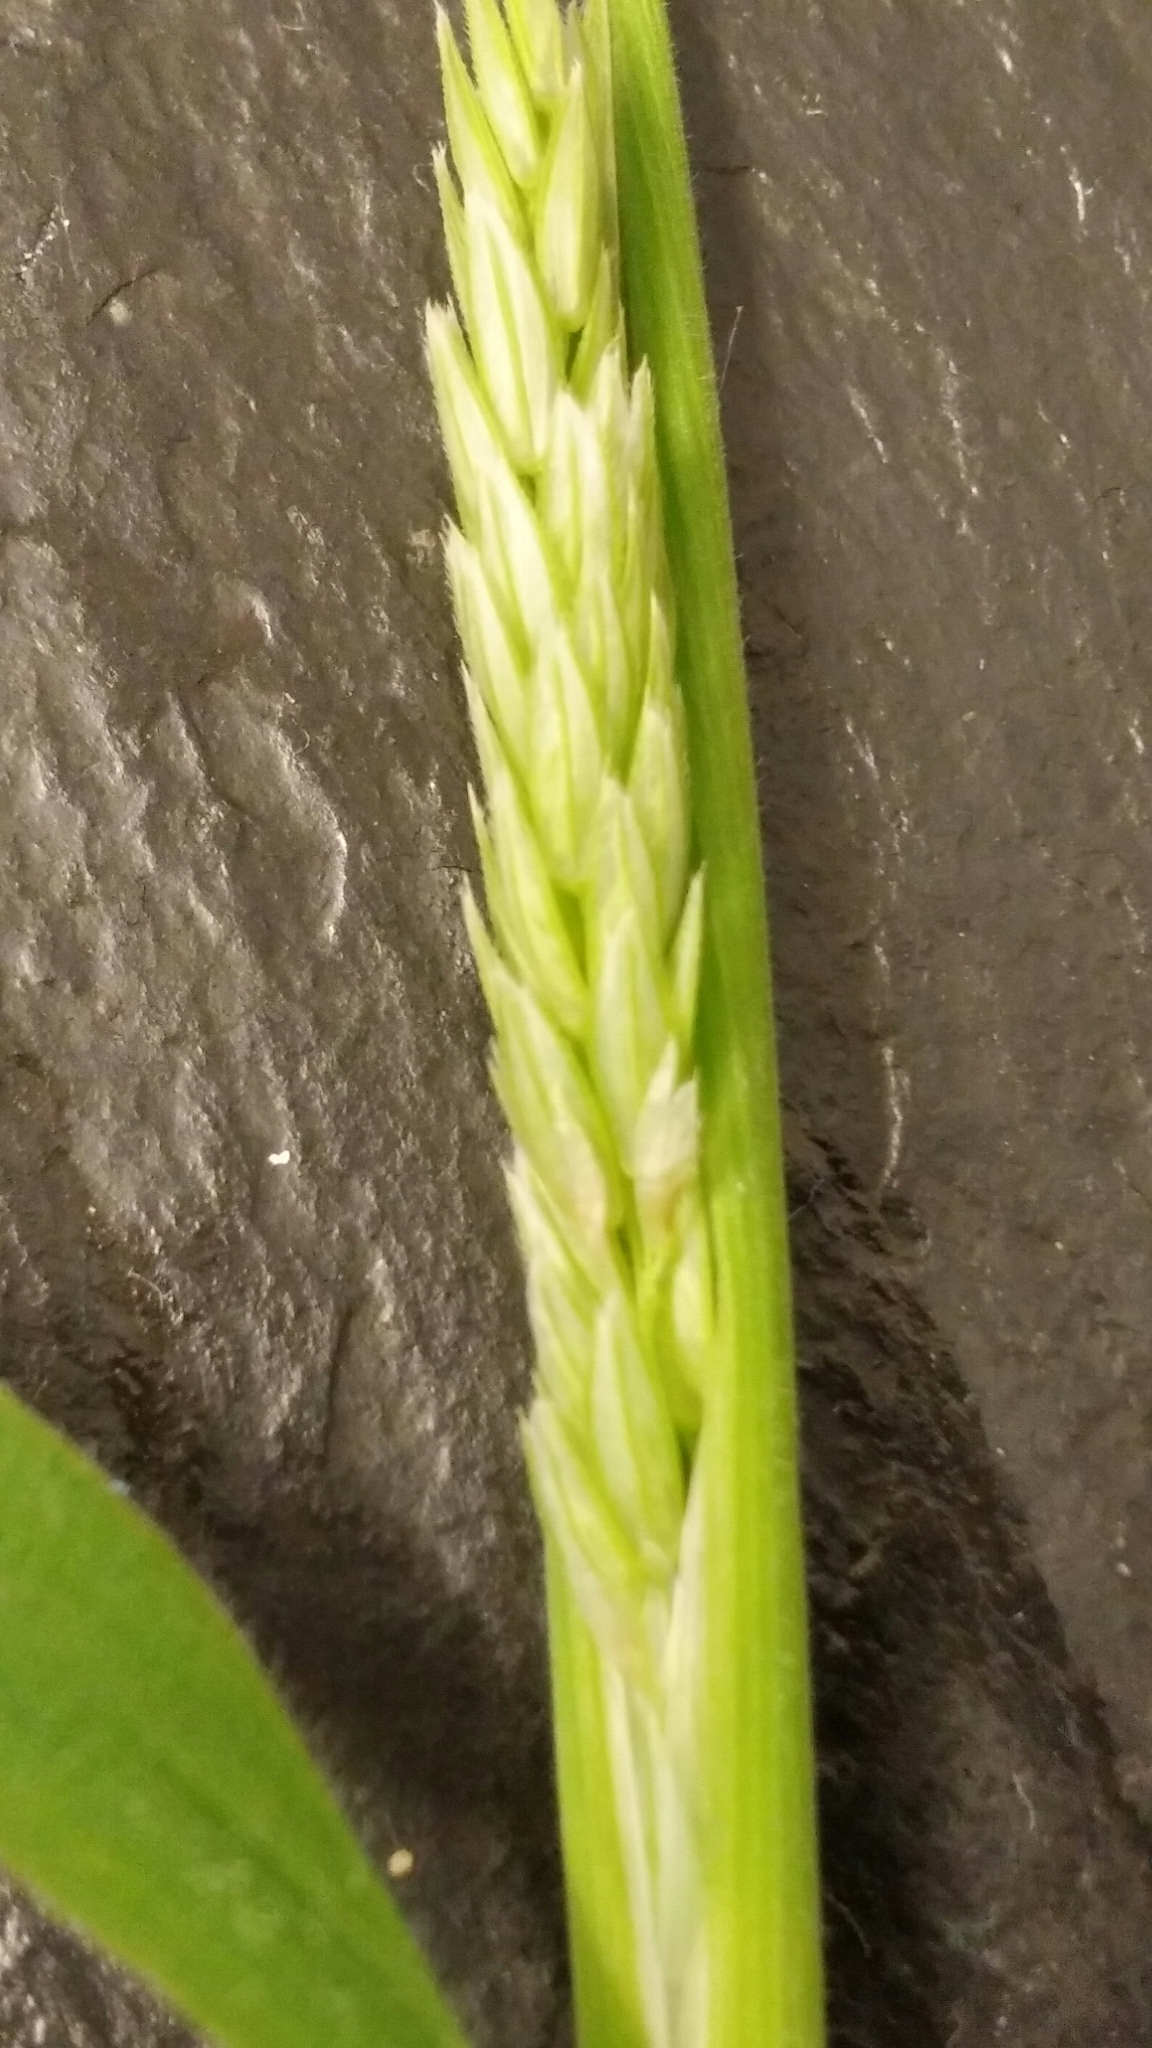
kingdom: Plantae
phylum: Tracheophyta
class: Liliopsida
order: Poales
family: Poaceae
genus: Holcus
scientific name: Holcus lanatus
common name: Yorkshire-fog
